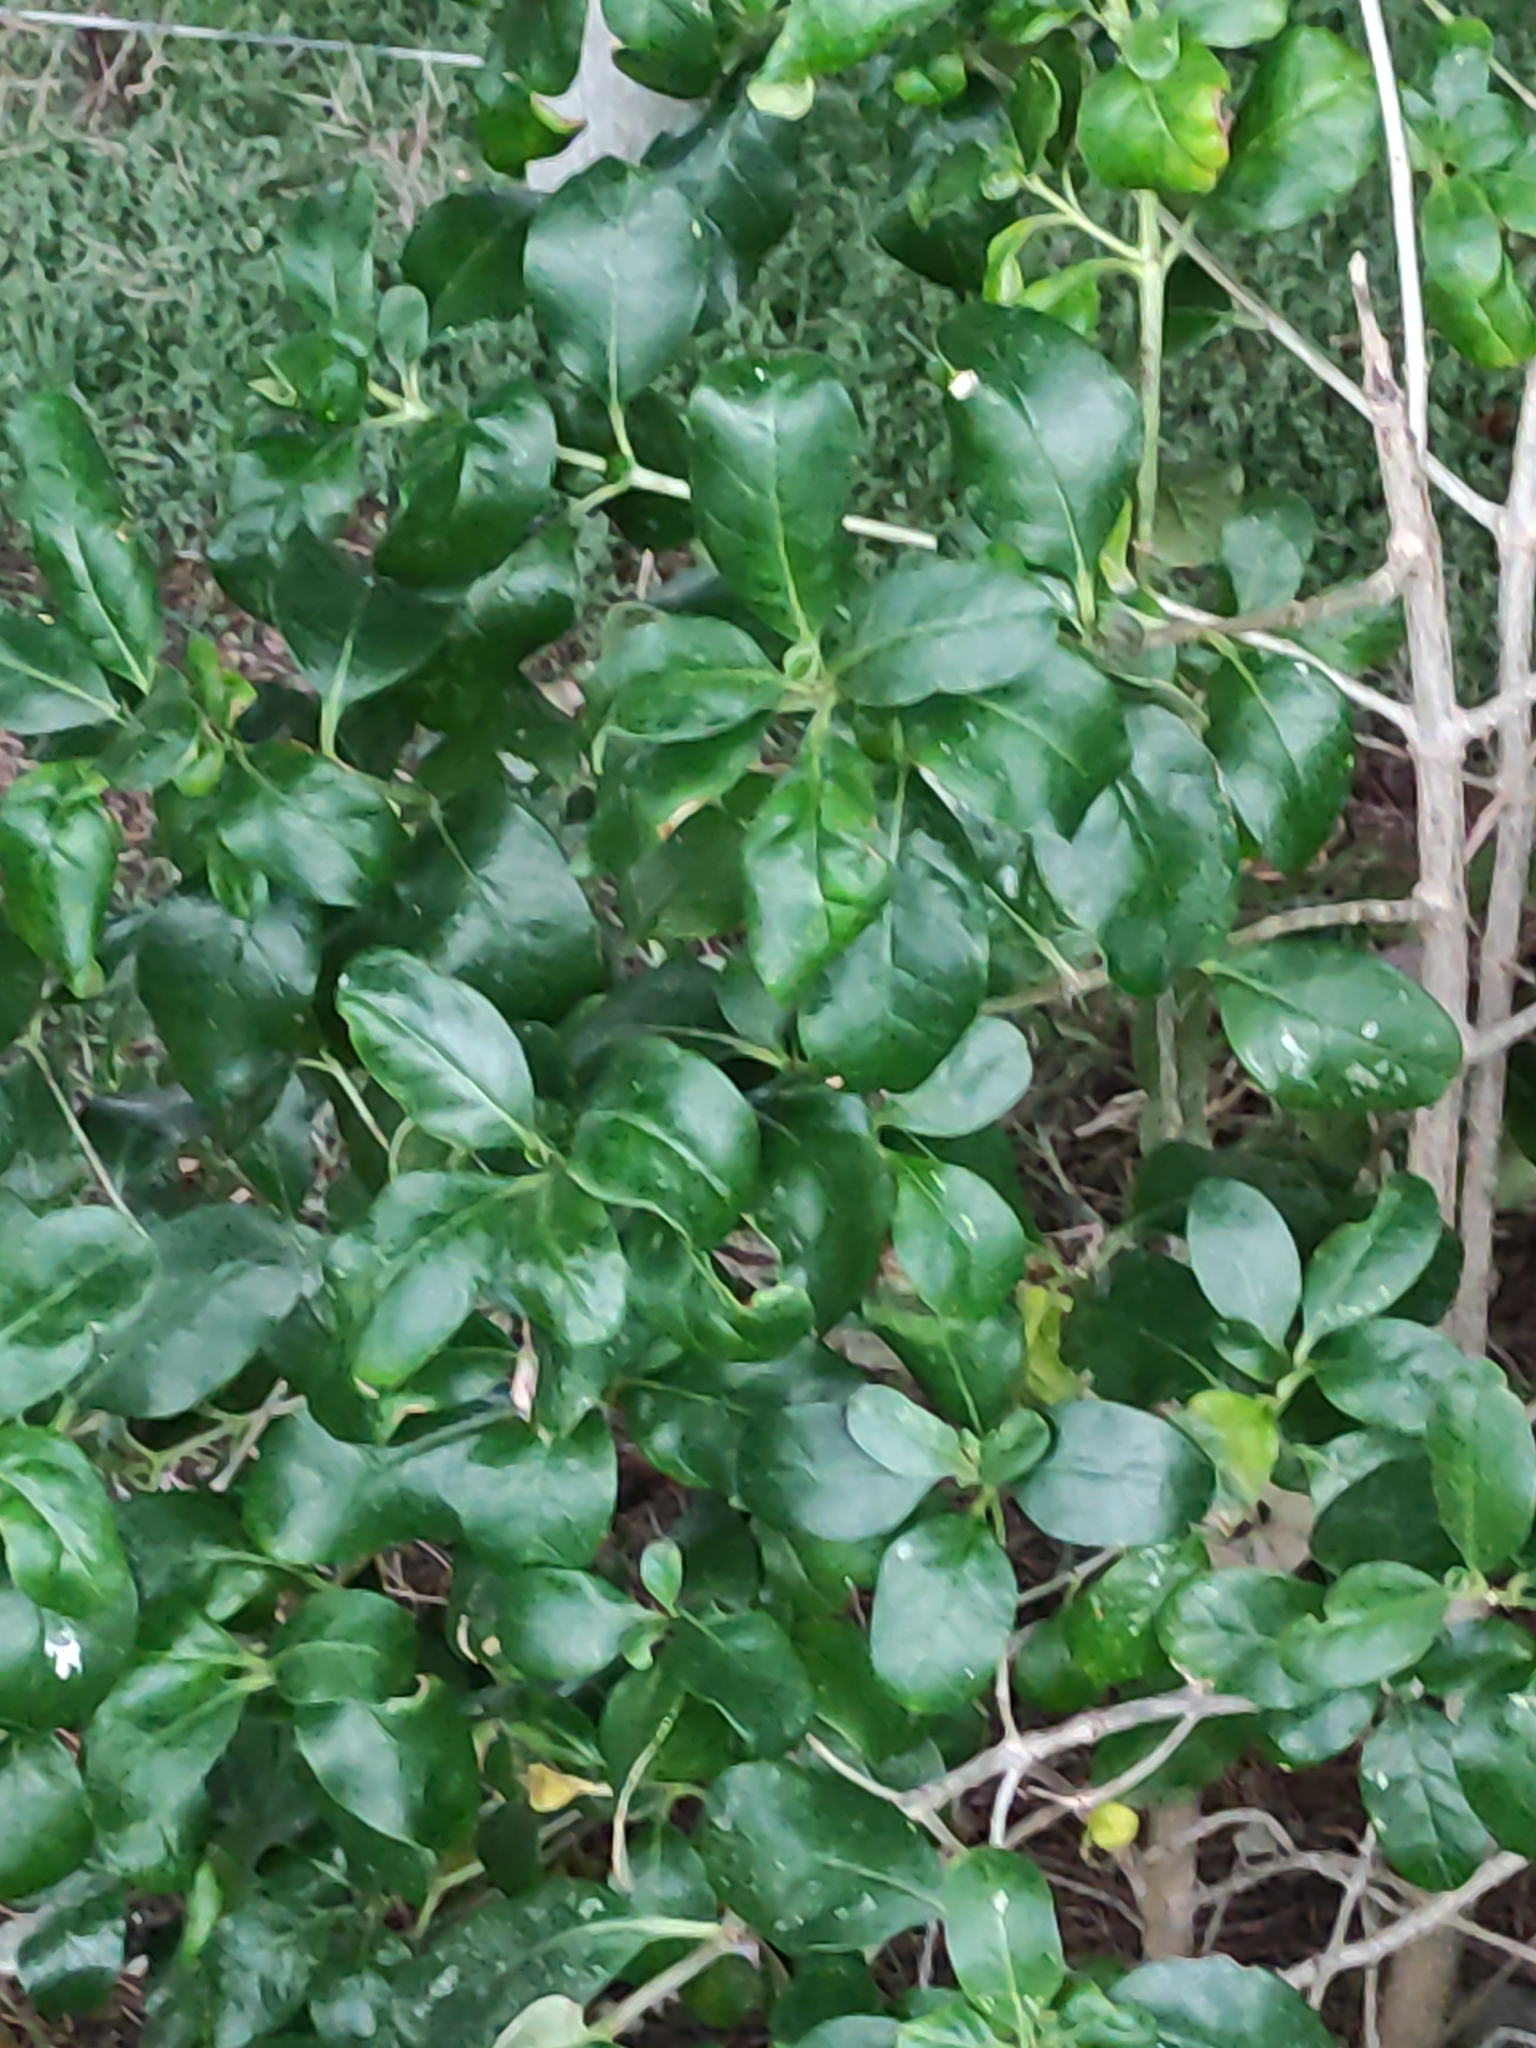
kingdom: Plantae
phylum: Tracheophyta
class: Magnoliopsida
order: Gentianales
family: Rubiaceae
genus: Coprosma
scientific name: Coprosma repens
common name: Tree bedstraw
